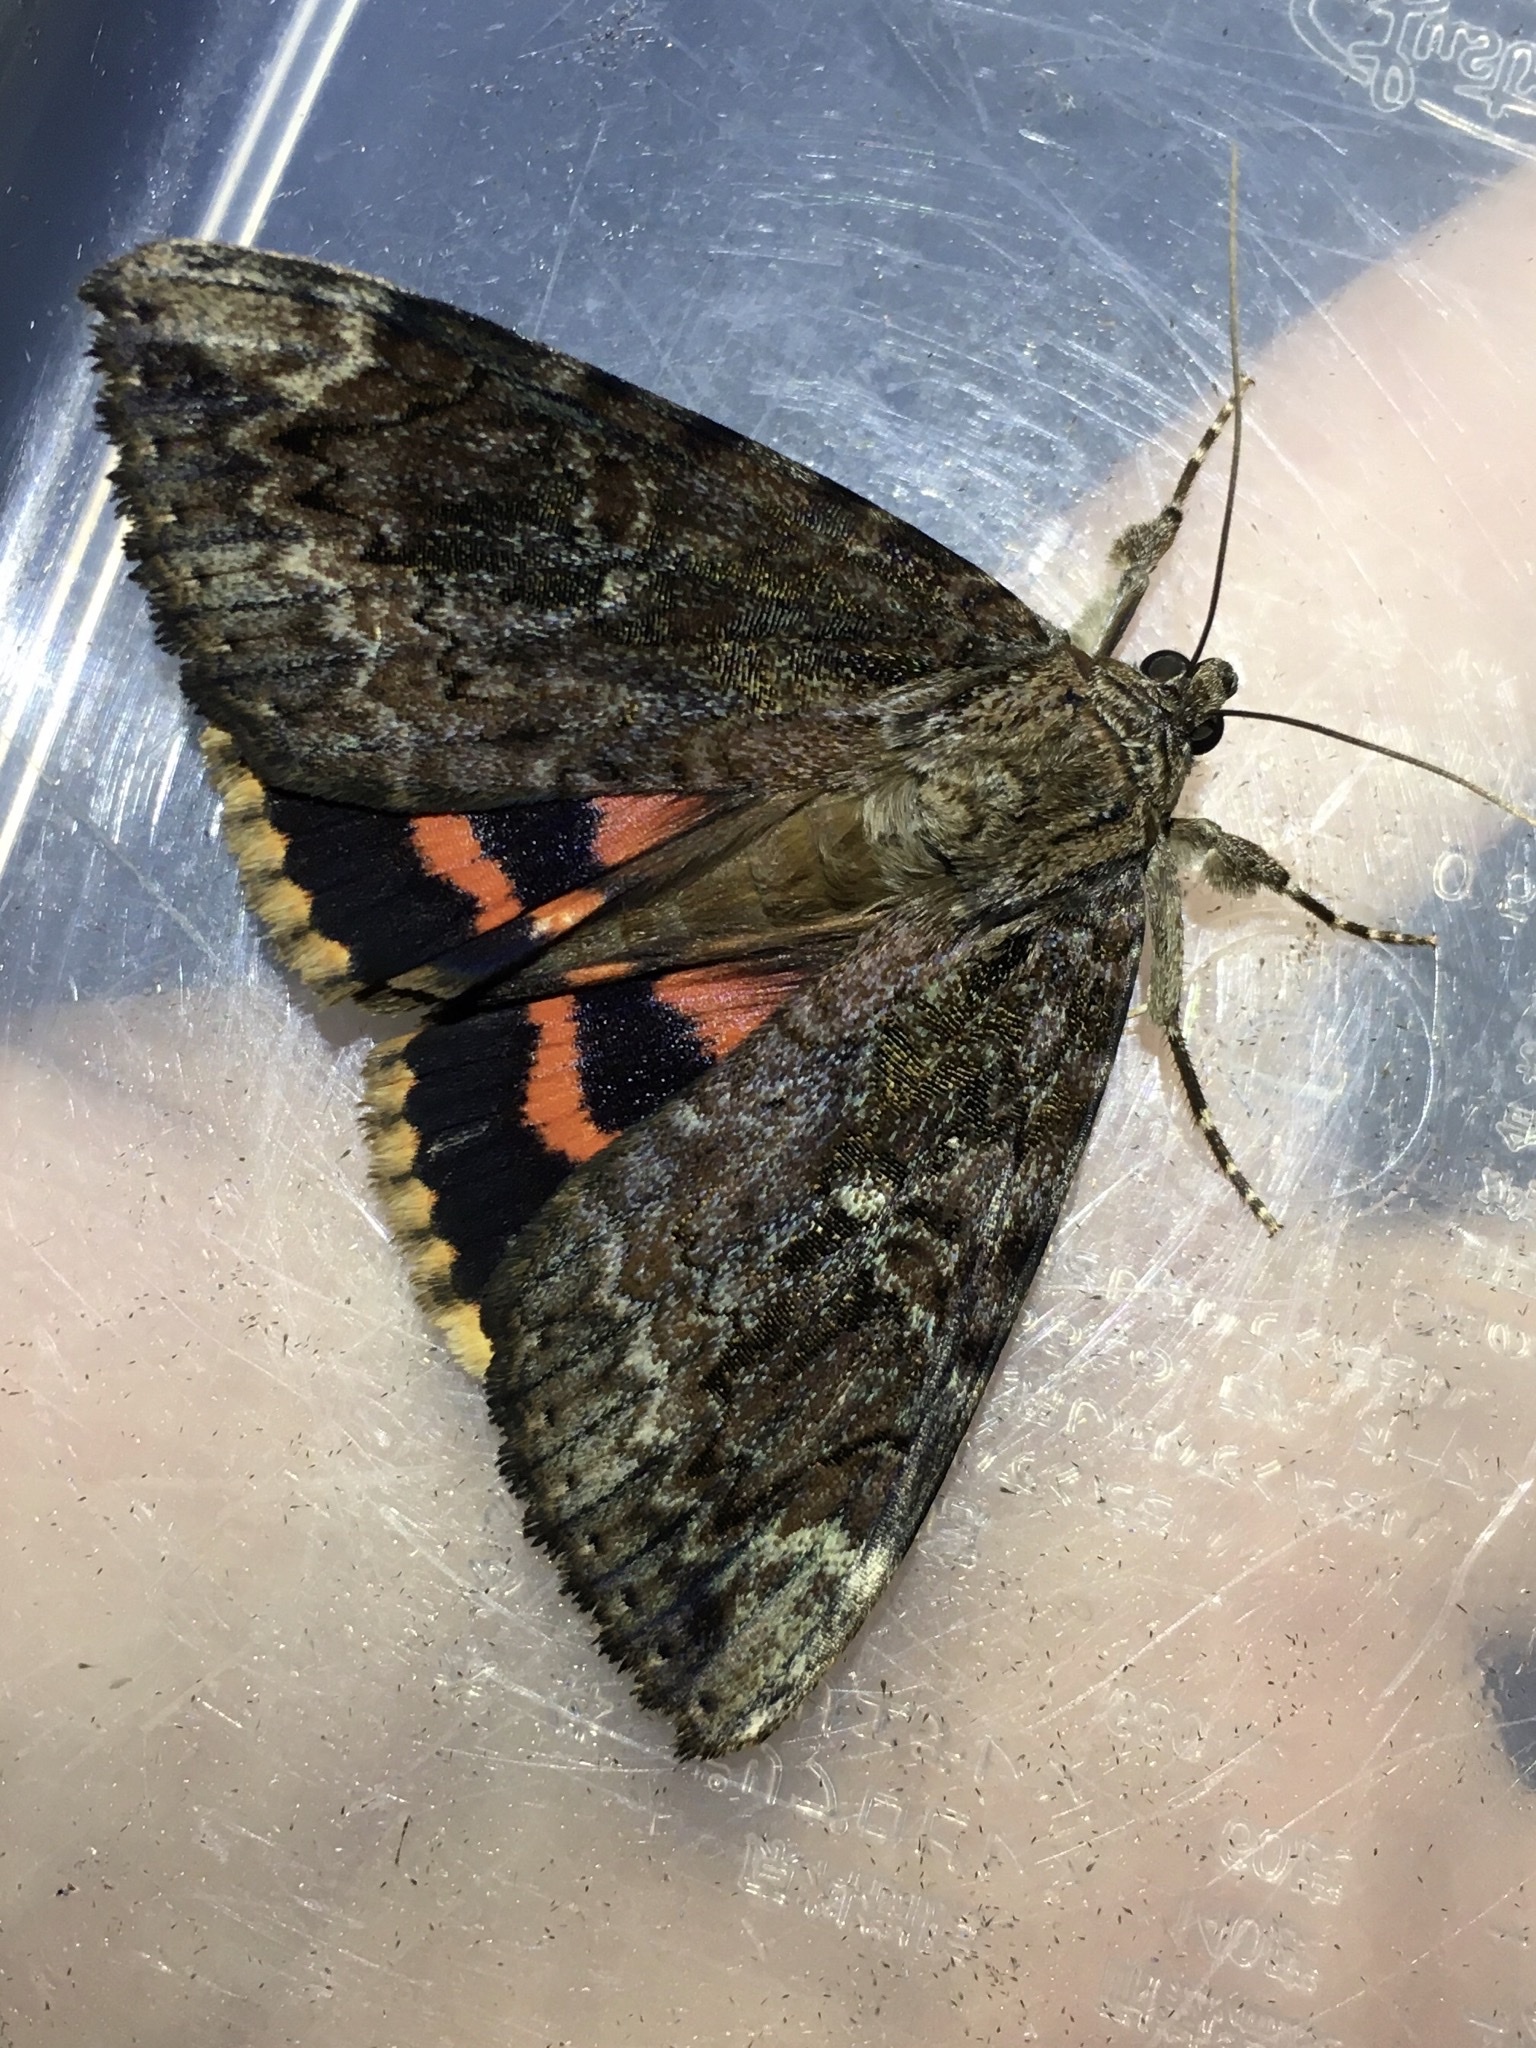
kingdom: Animalia
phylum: Arthropoda
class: Insecta
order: Lepidoptera
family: Erebidae
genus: Catocala
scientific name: Catocala innubens
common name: Betrothed underwing
